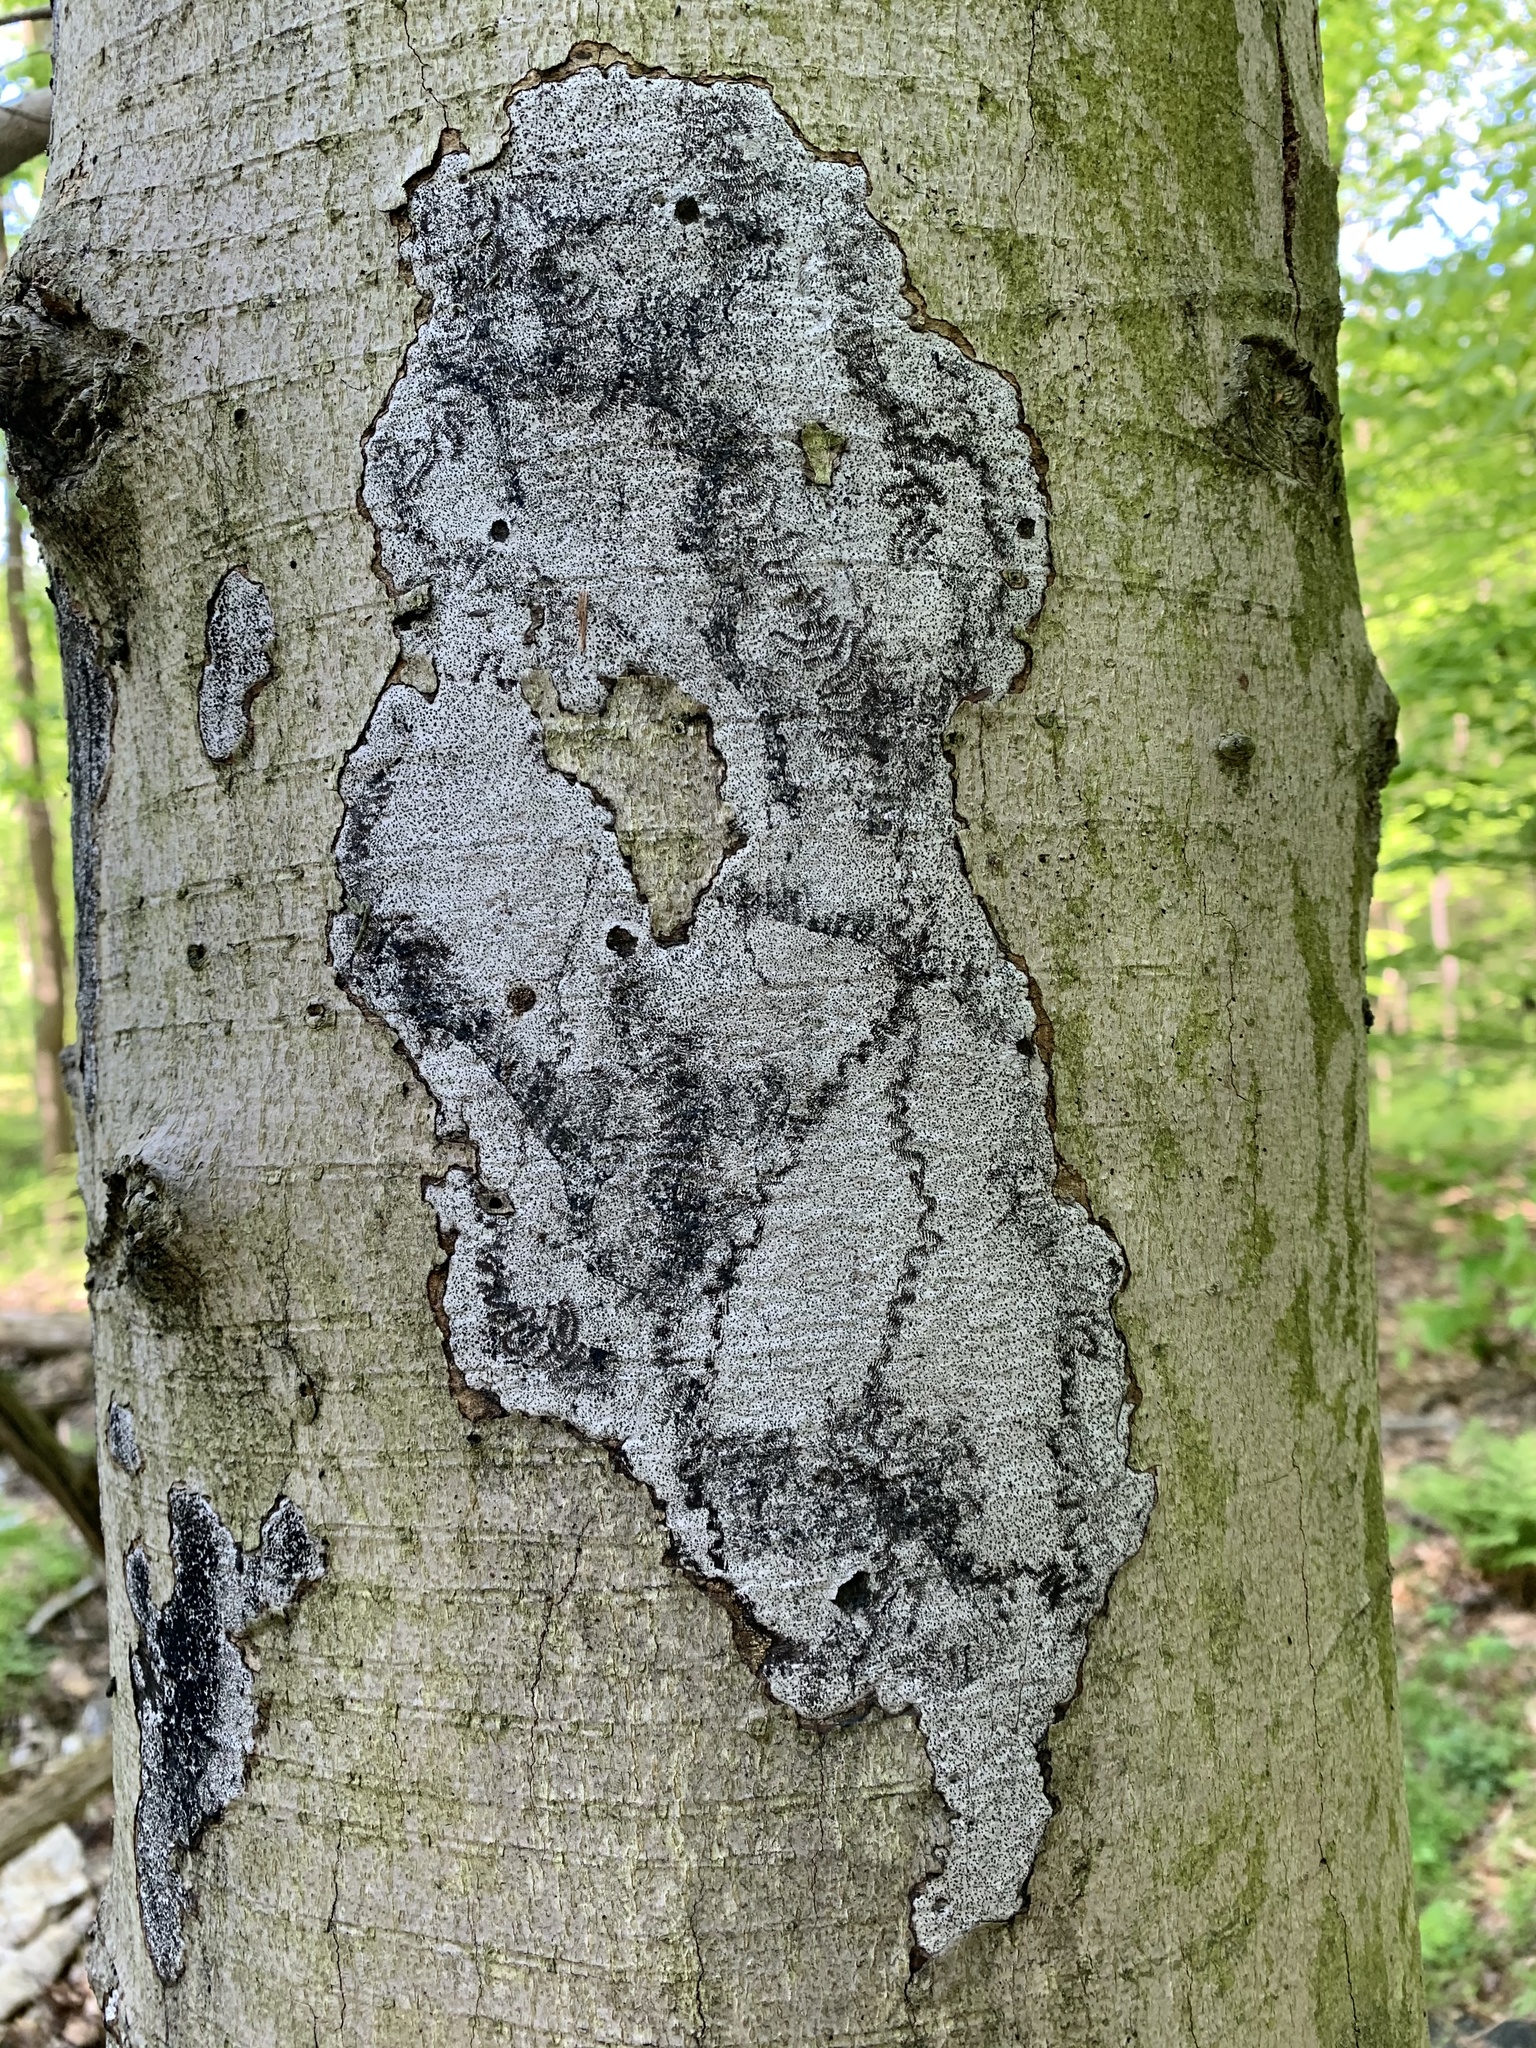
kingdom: Fungi
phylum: Ascomycota
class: Sordariomycetes
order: Xylariales
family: Graphostromataceae
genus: Biscogniauxia
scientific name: Biscogniauxia atropunctata
